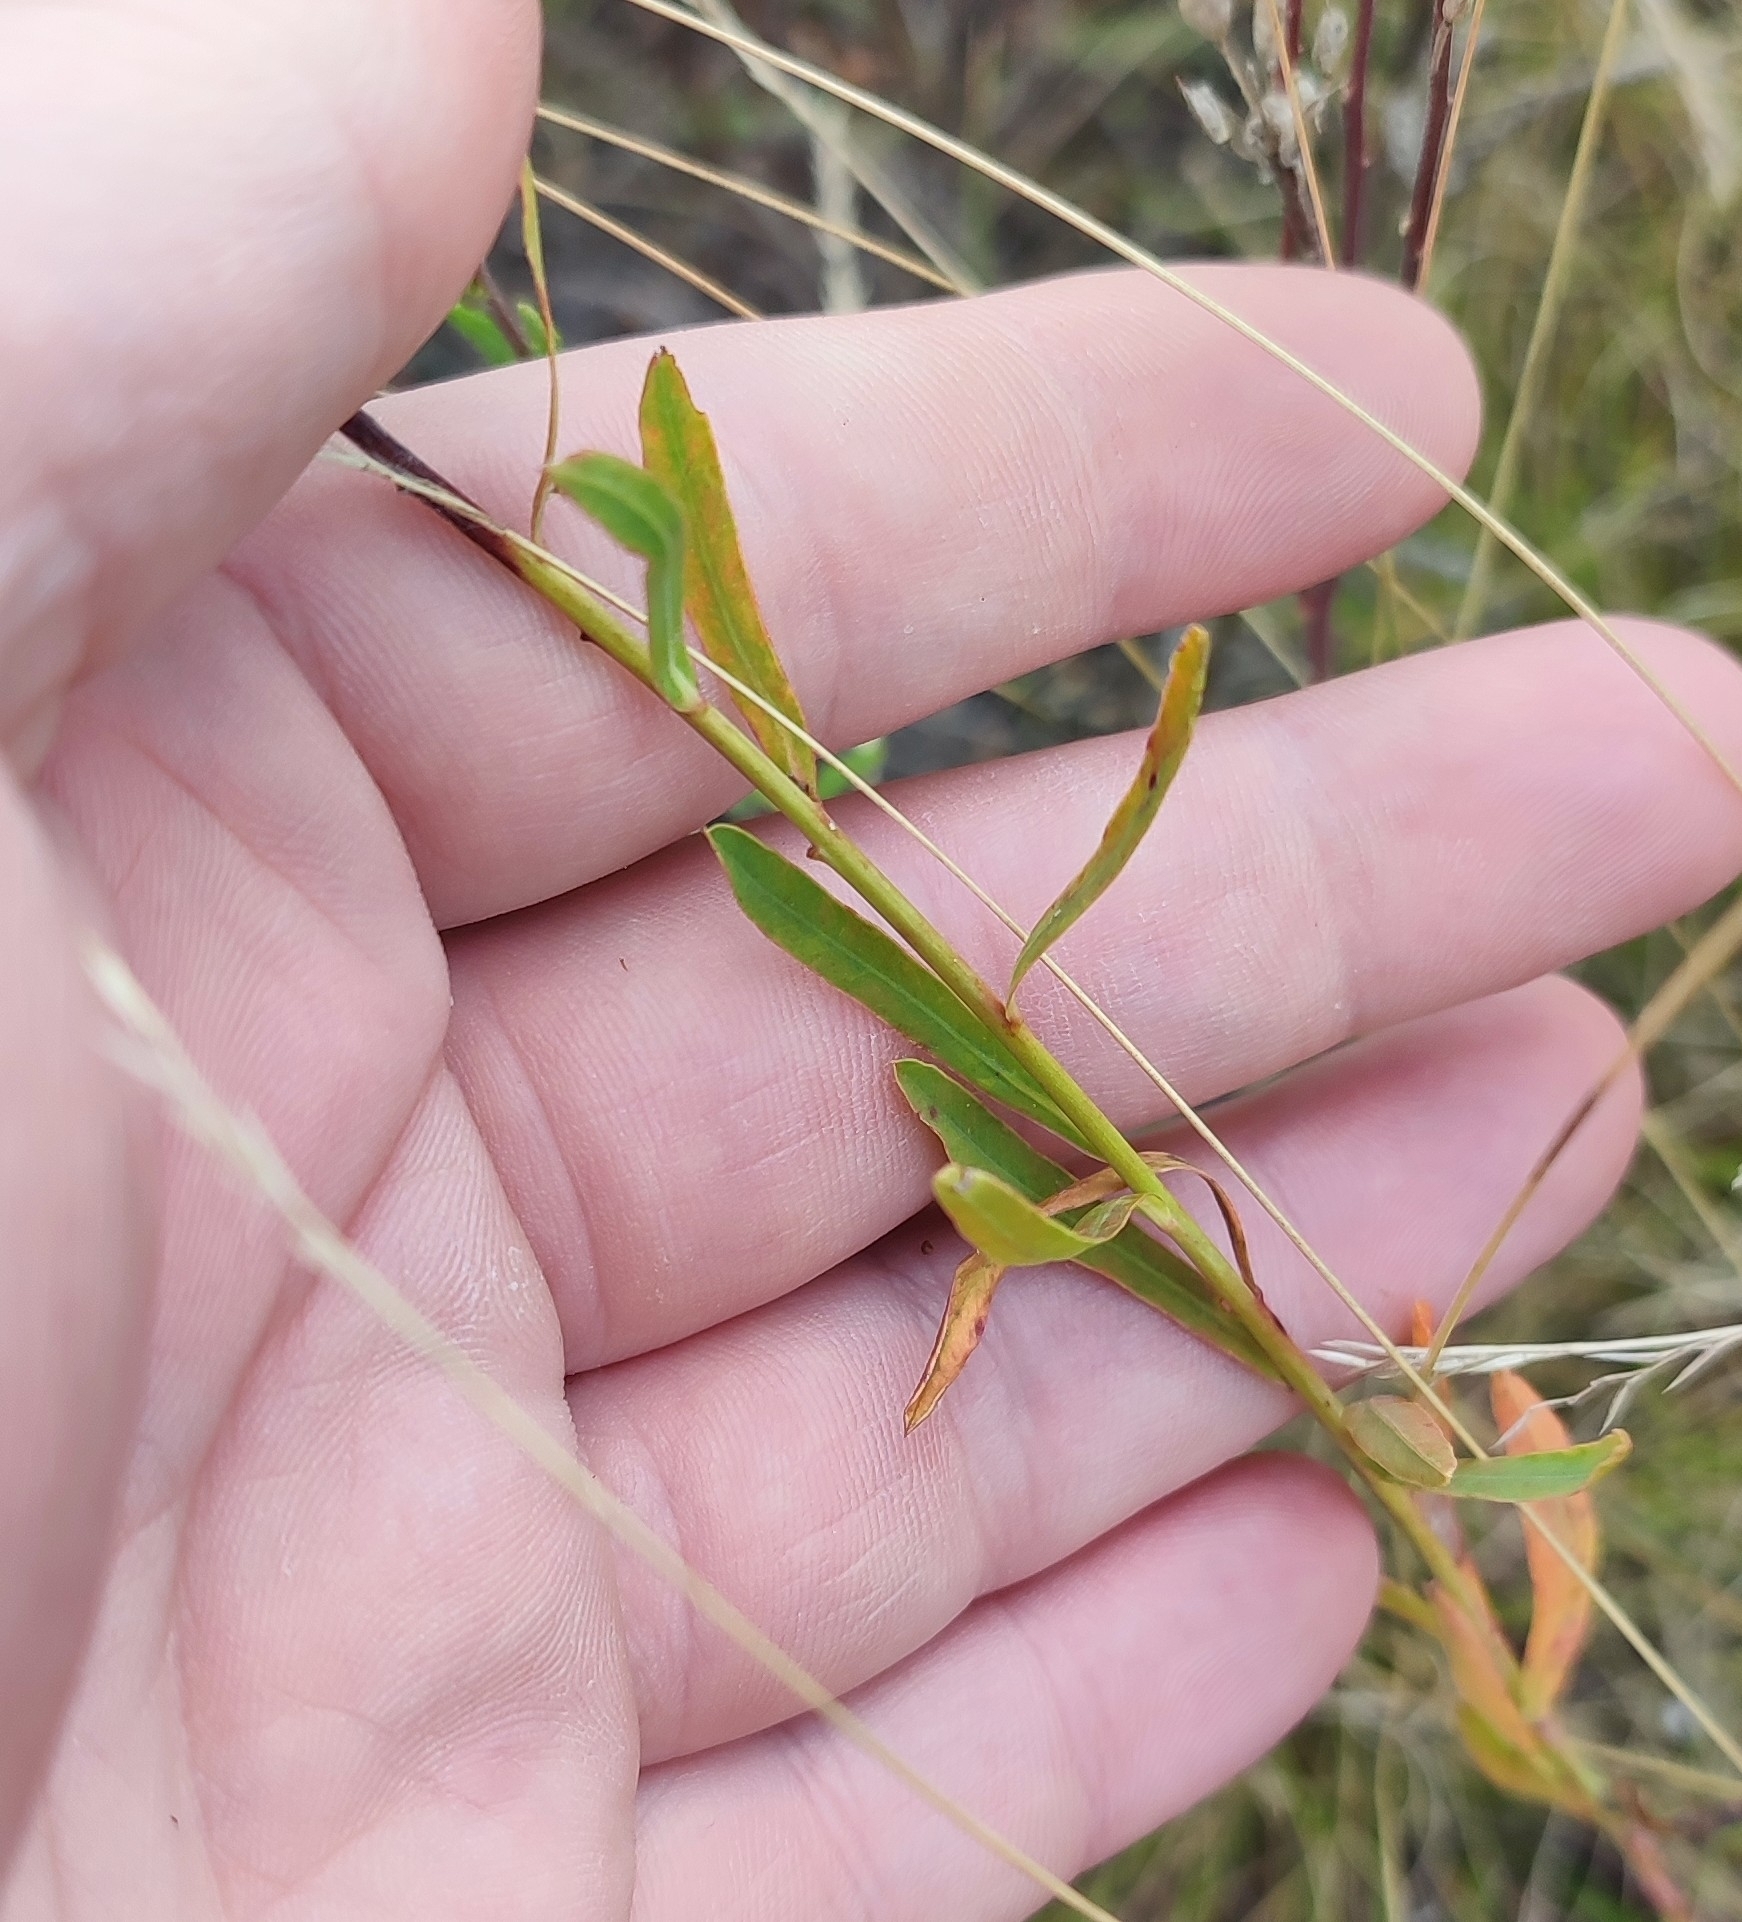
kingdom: Plantae
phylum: Tracheophyta
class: Magnoliopsida
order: Malpighiales
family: Euphorbiaceae
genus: Euphorbia
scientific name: Euphorbia virgata
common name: Leafy spurge
